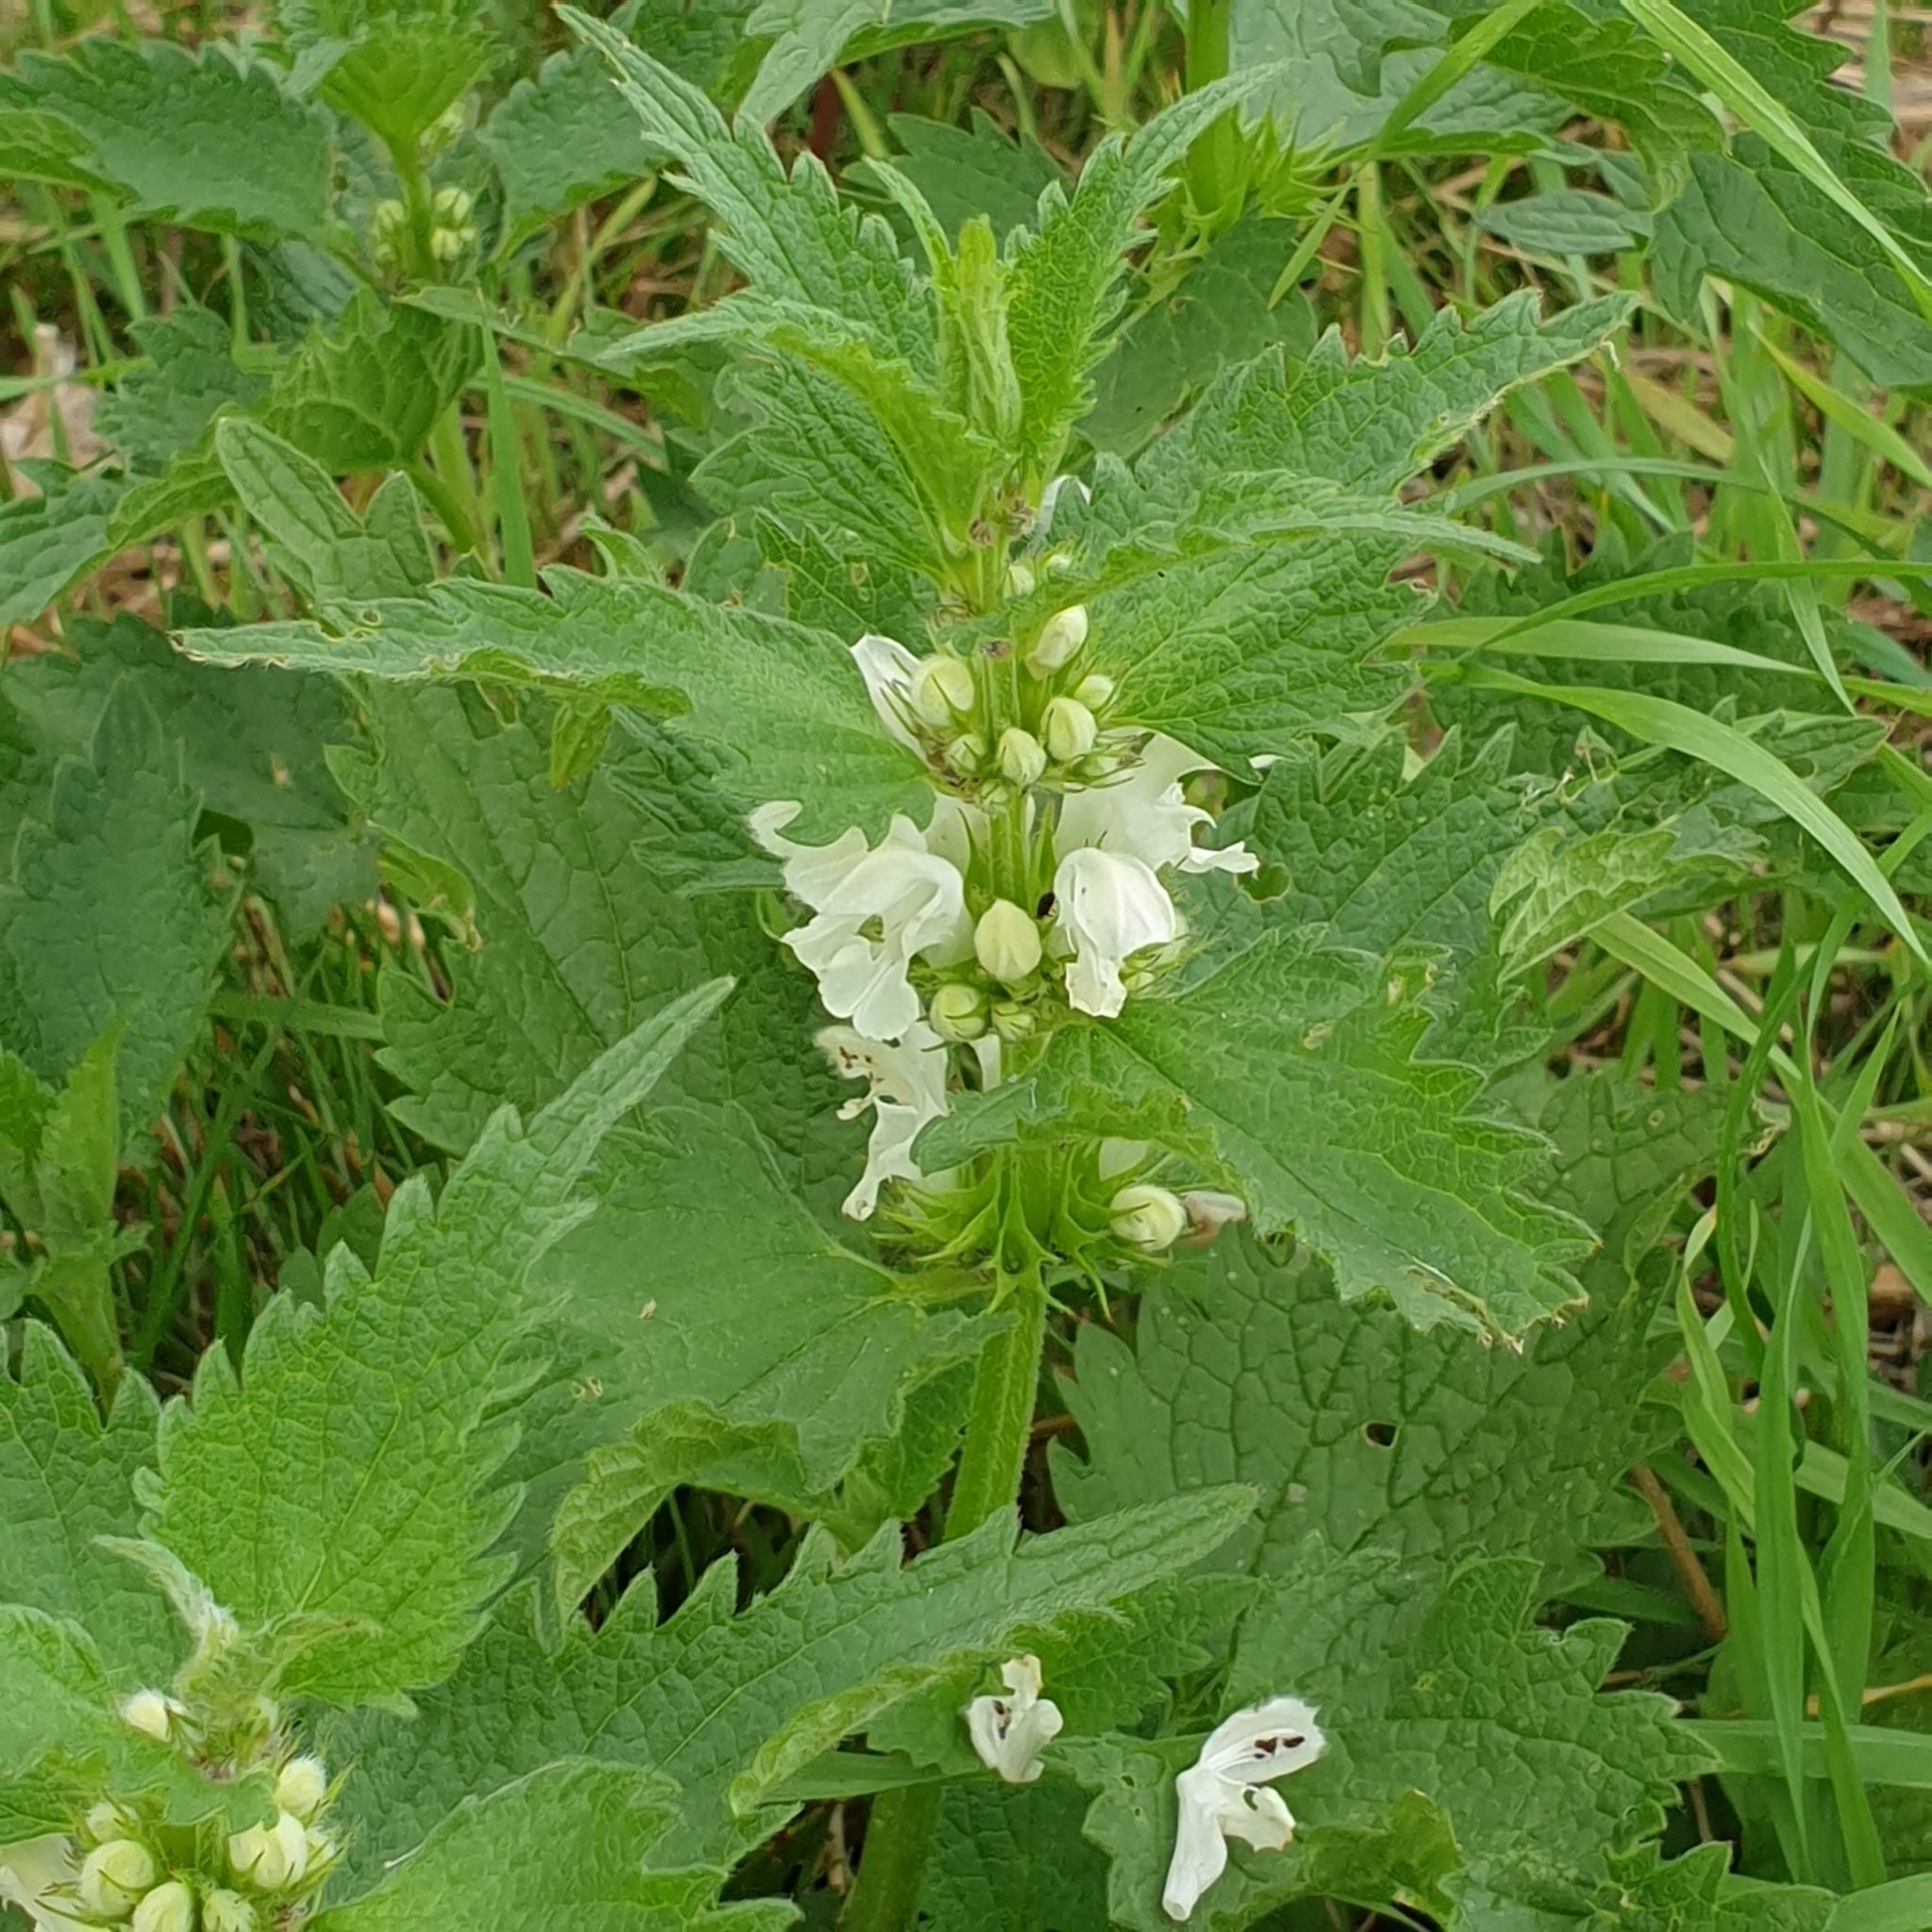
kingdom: Plantae
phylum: Tracheophyta
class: Magnoliopsida
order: Lamiales
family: Lamiaceae
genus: Lamium
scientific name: Lamium album
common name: White dead-nettle
